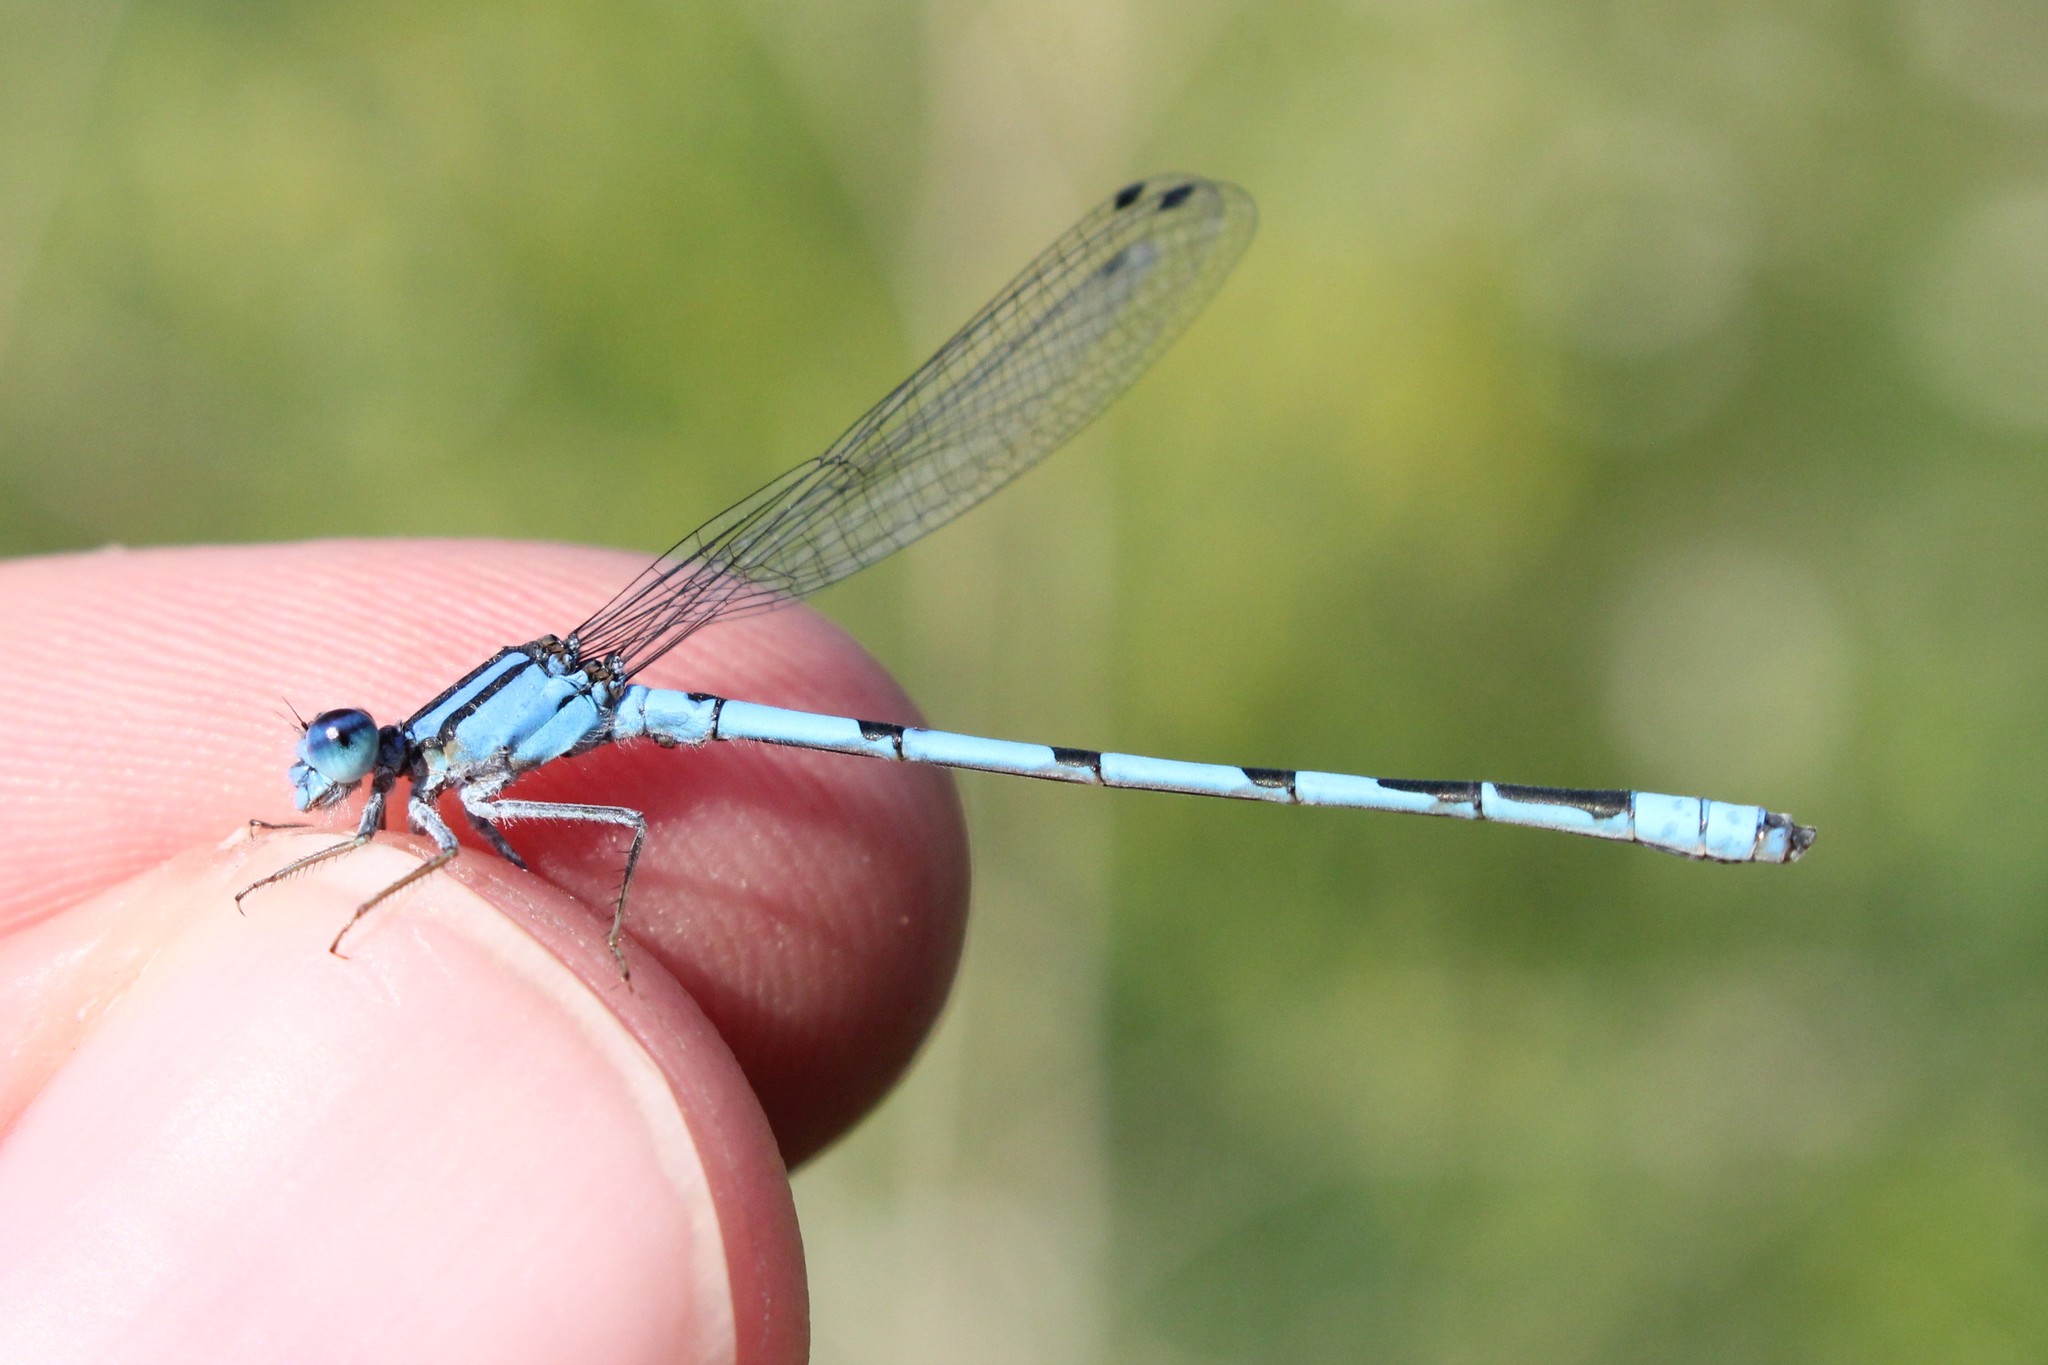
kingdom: Animalia
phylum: Arthropoda
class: Insecta
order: Odonata
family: Coenagrionidae
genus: Enallagma
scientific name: Enallagma civile
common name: Damselfly
